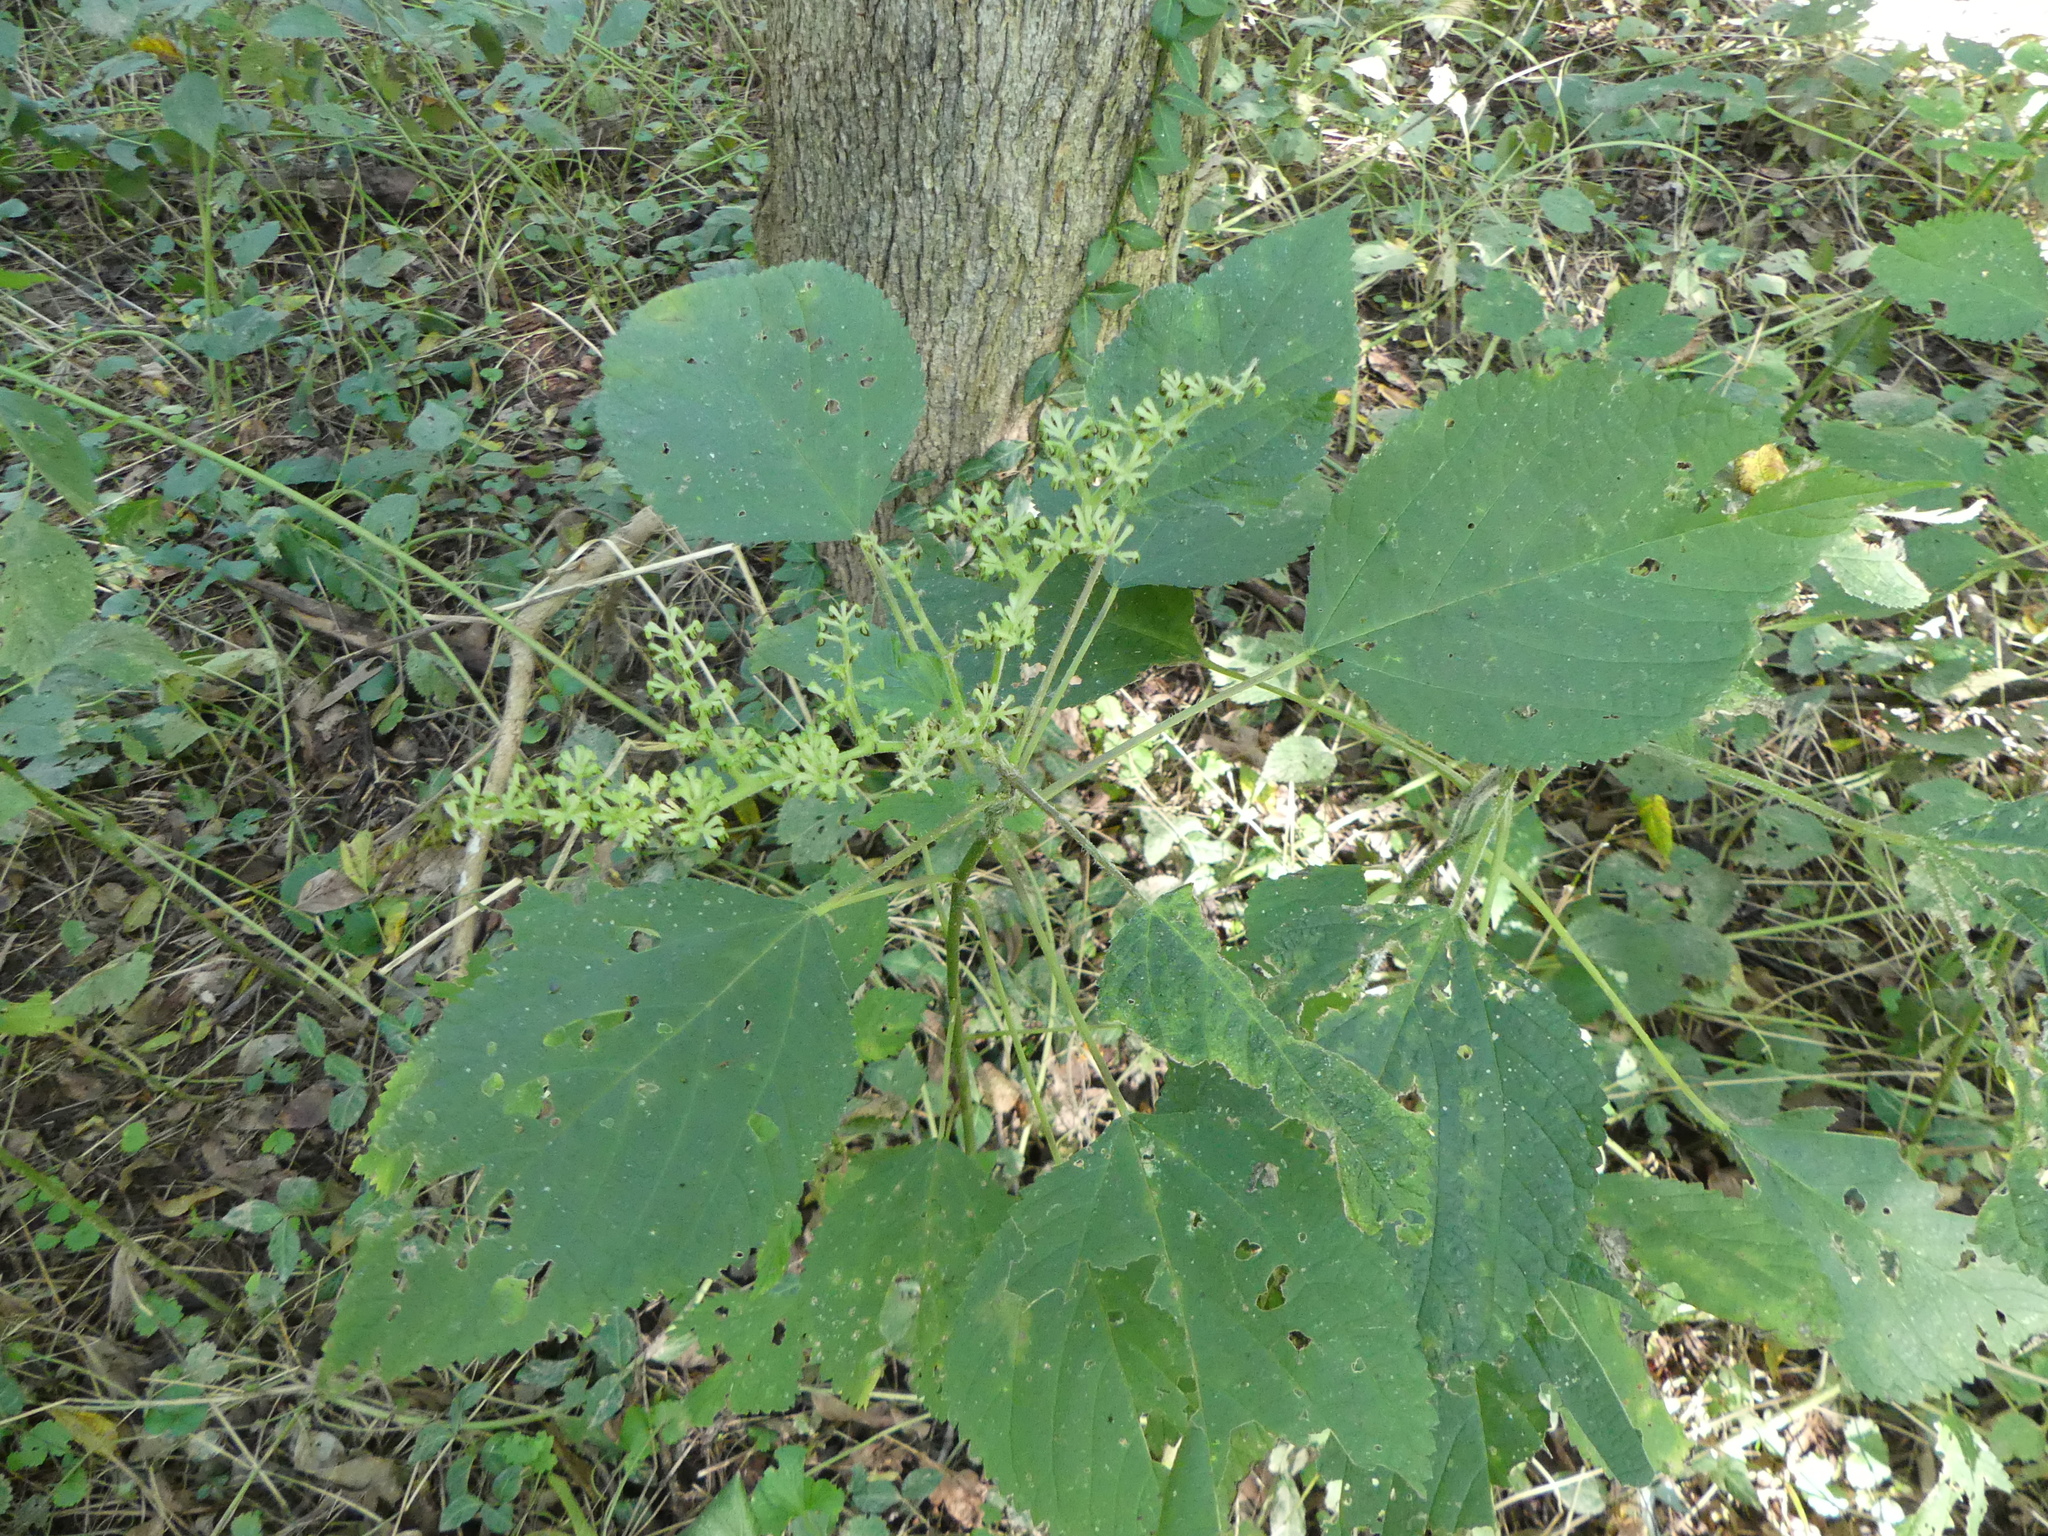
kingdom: Plantae
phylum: Tracheophyta
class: Magnoliopsida
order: Rosales
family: Urticaceae
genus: Laportea
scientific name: Laportea canadensis
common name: Canada nettle
